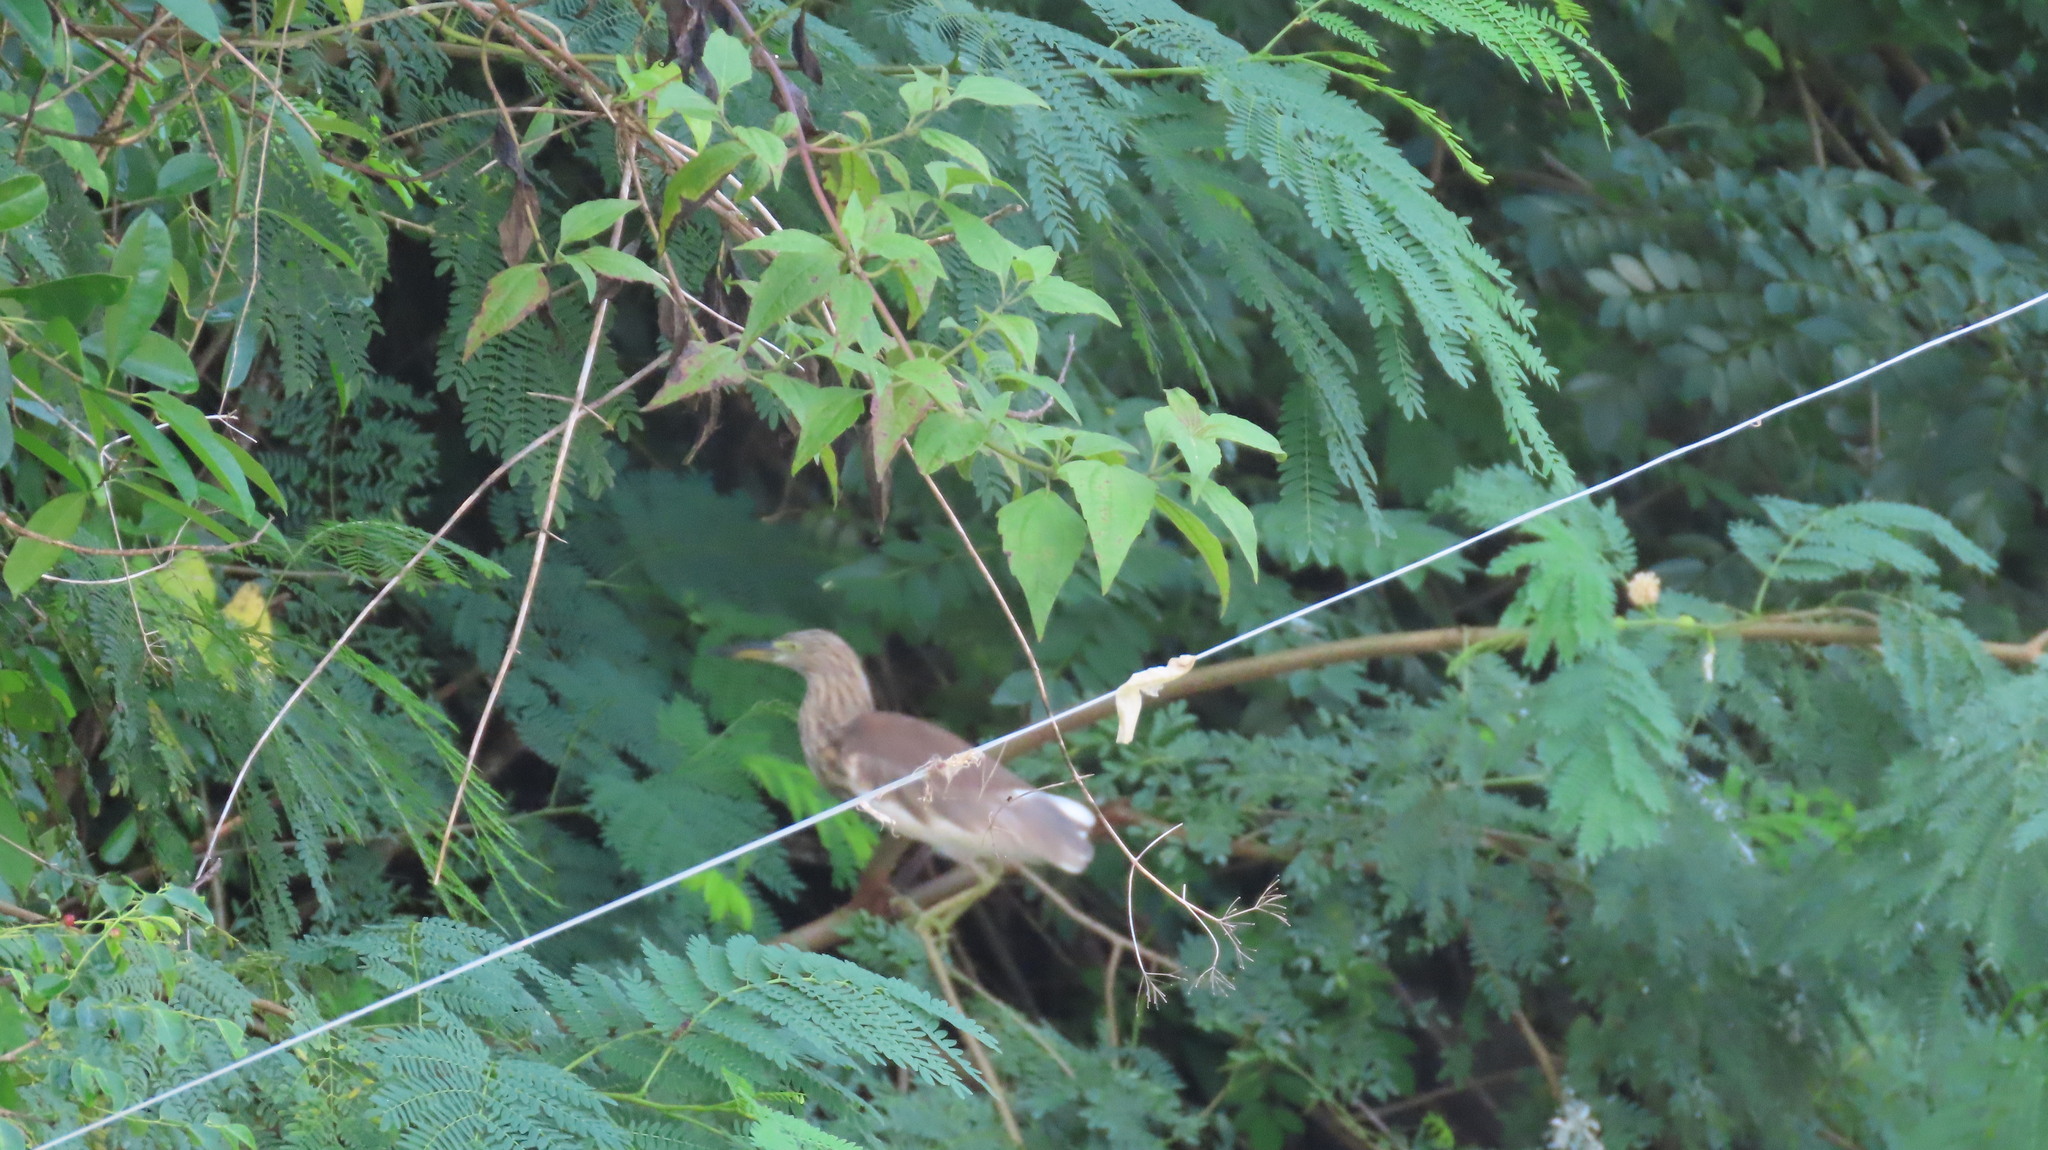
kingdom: Animalia
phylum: Chordata
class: Aves
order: Pelecaniformes
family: Ardeidae
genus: Ardeola
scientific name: Ardeola grayii
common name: Indian pond heron
